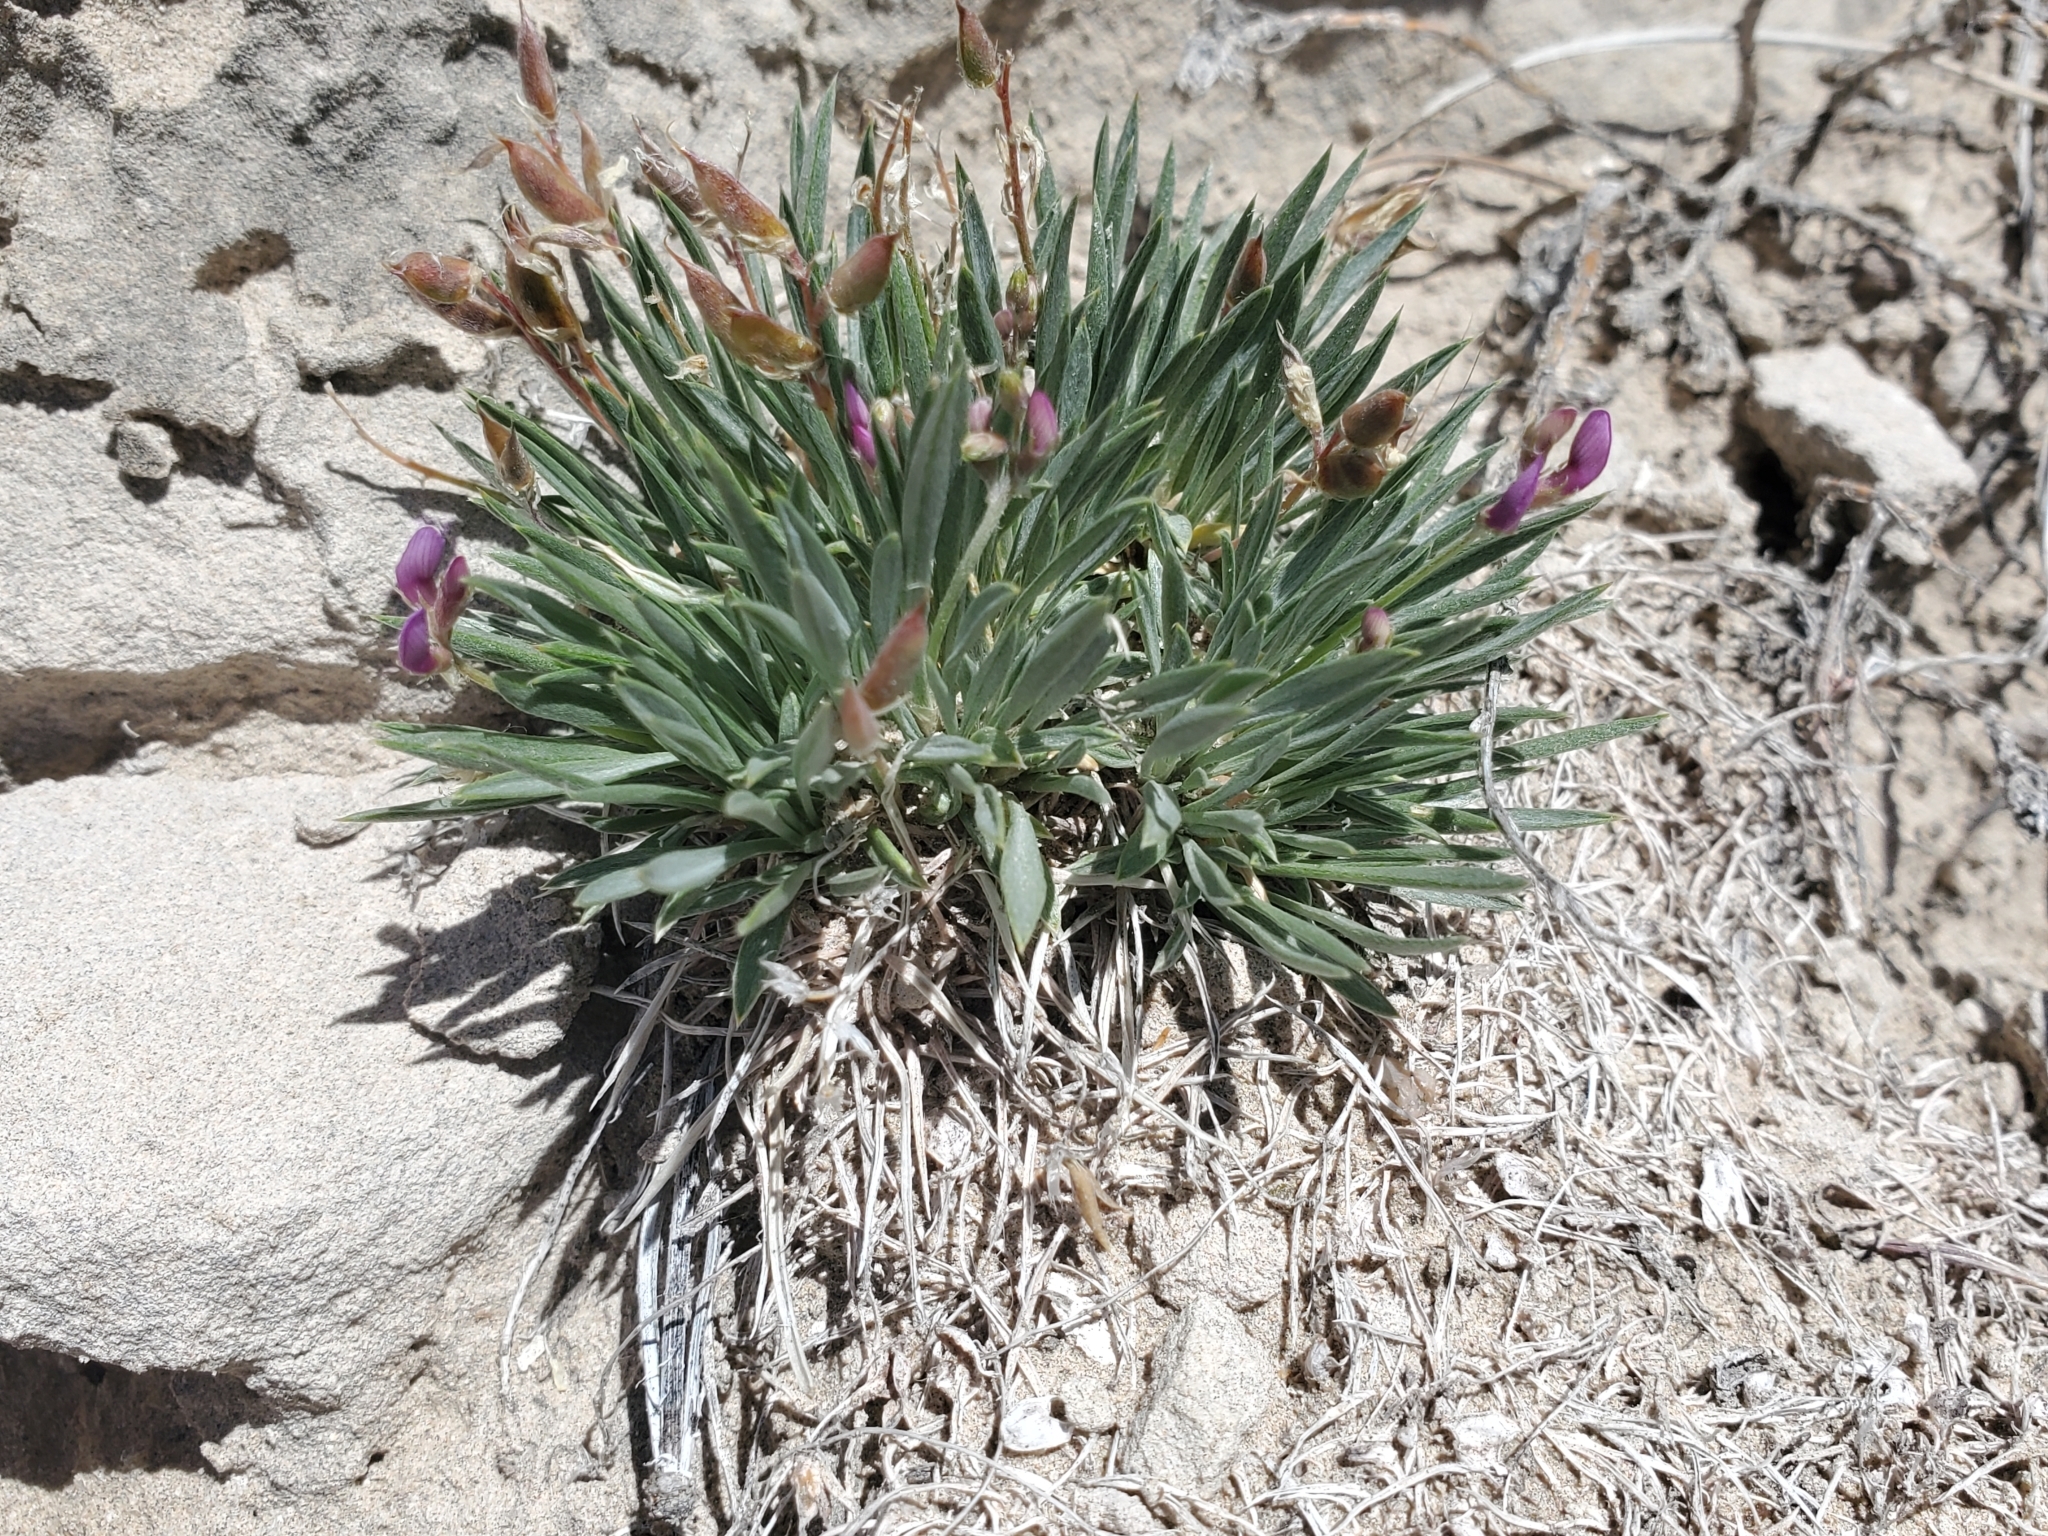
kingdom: Plantae
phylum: Tracheophyta
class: Magnoliopsida
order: Fabales
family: Fabaceae
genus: Astragalus
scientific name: Astragalus spatulatus
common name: Draba milk-vetch
